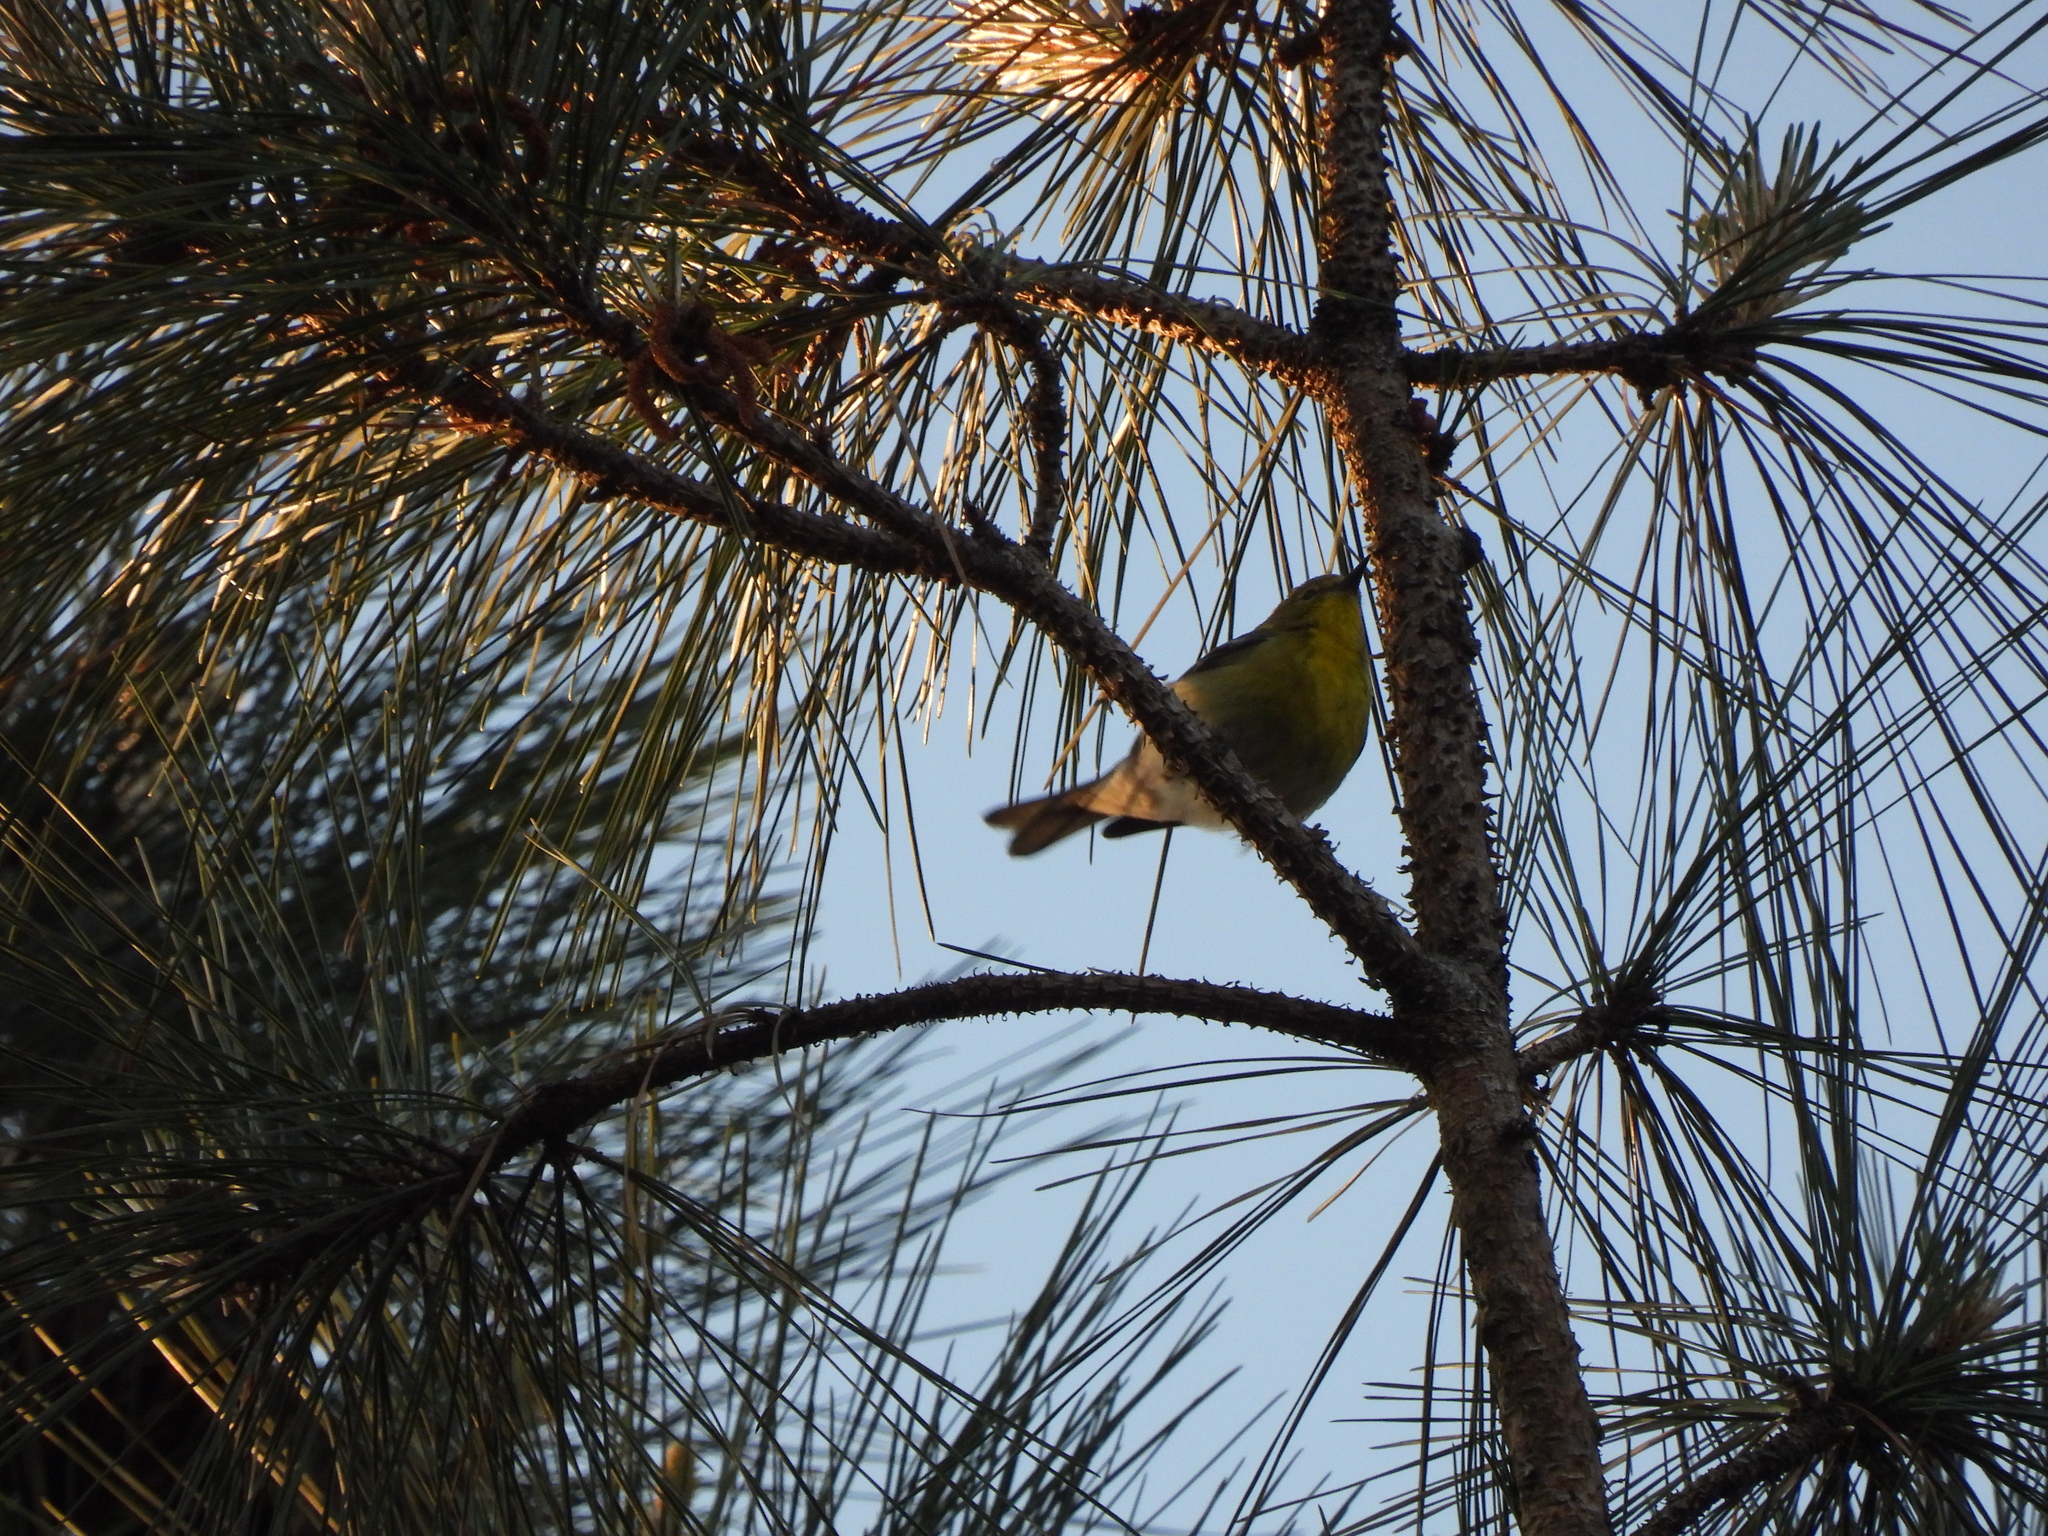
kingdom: Animalia
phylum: Chordata
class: Aves
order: Passeriformes
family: Parulidae
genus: Setophaga
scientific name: Setophaga pinus
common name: Pine warbler
